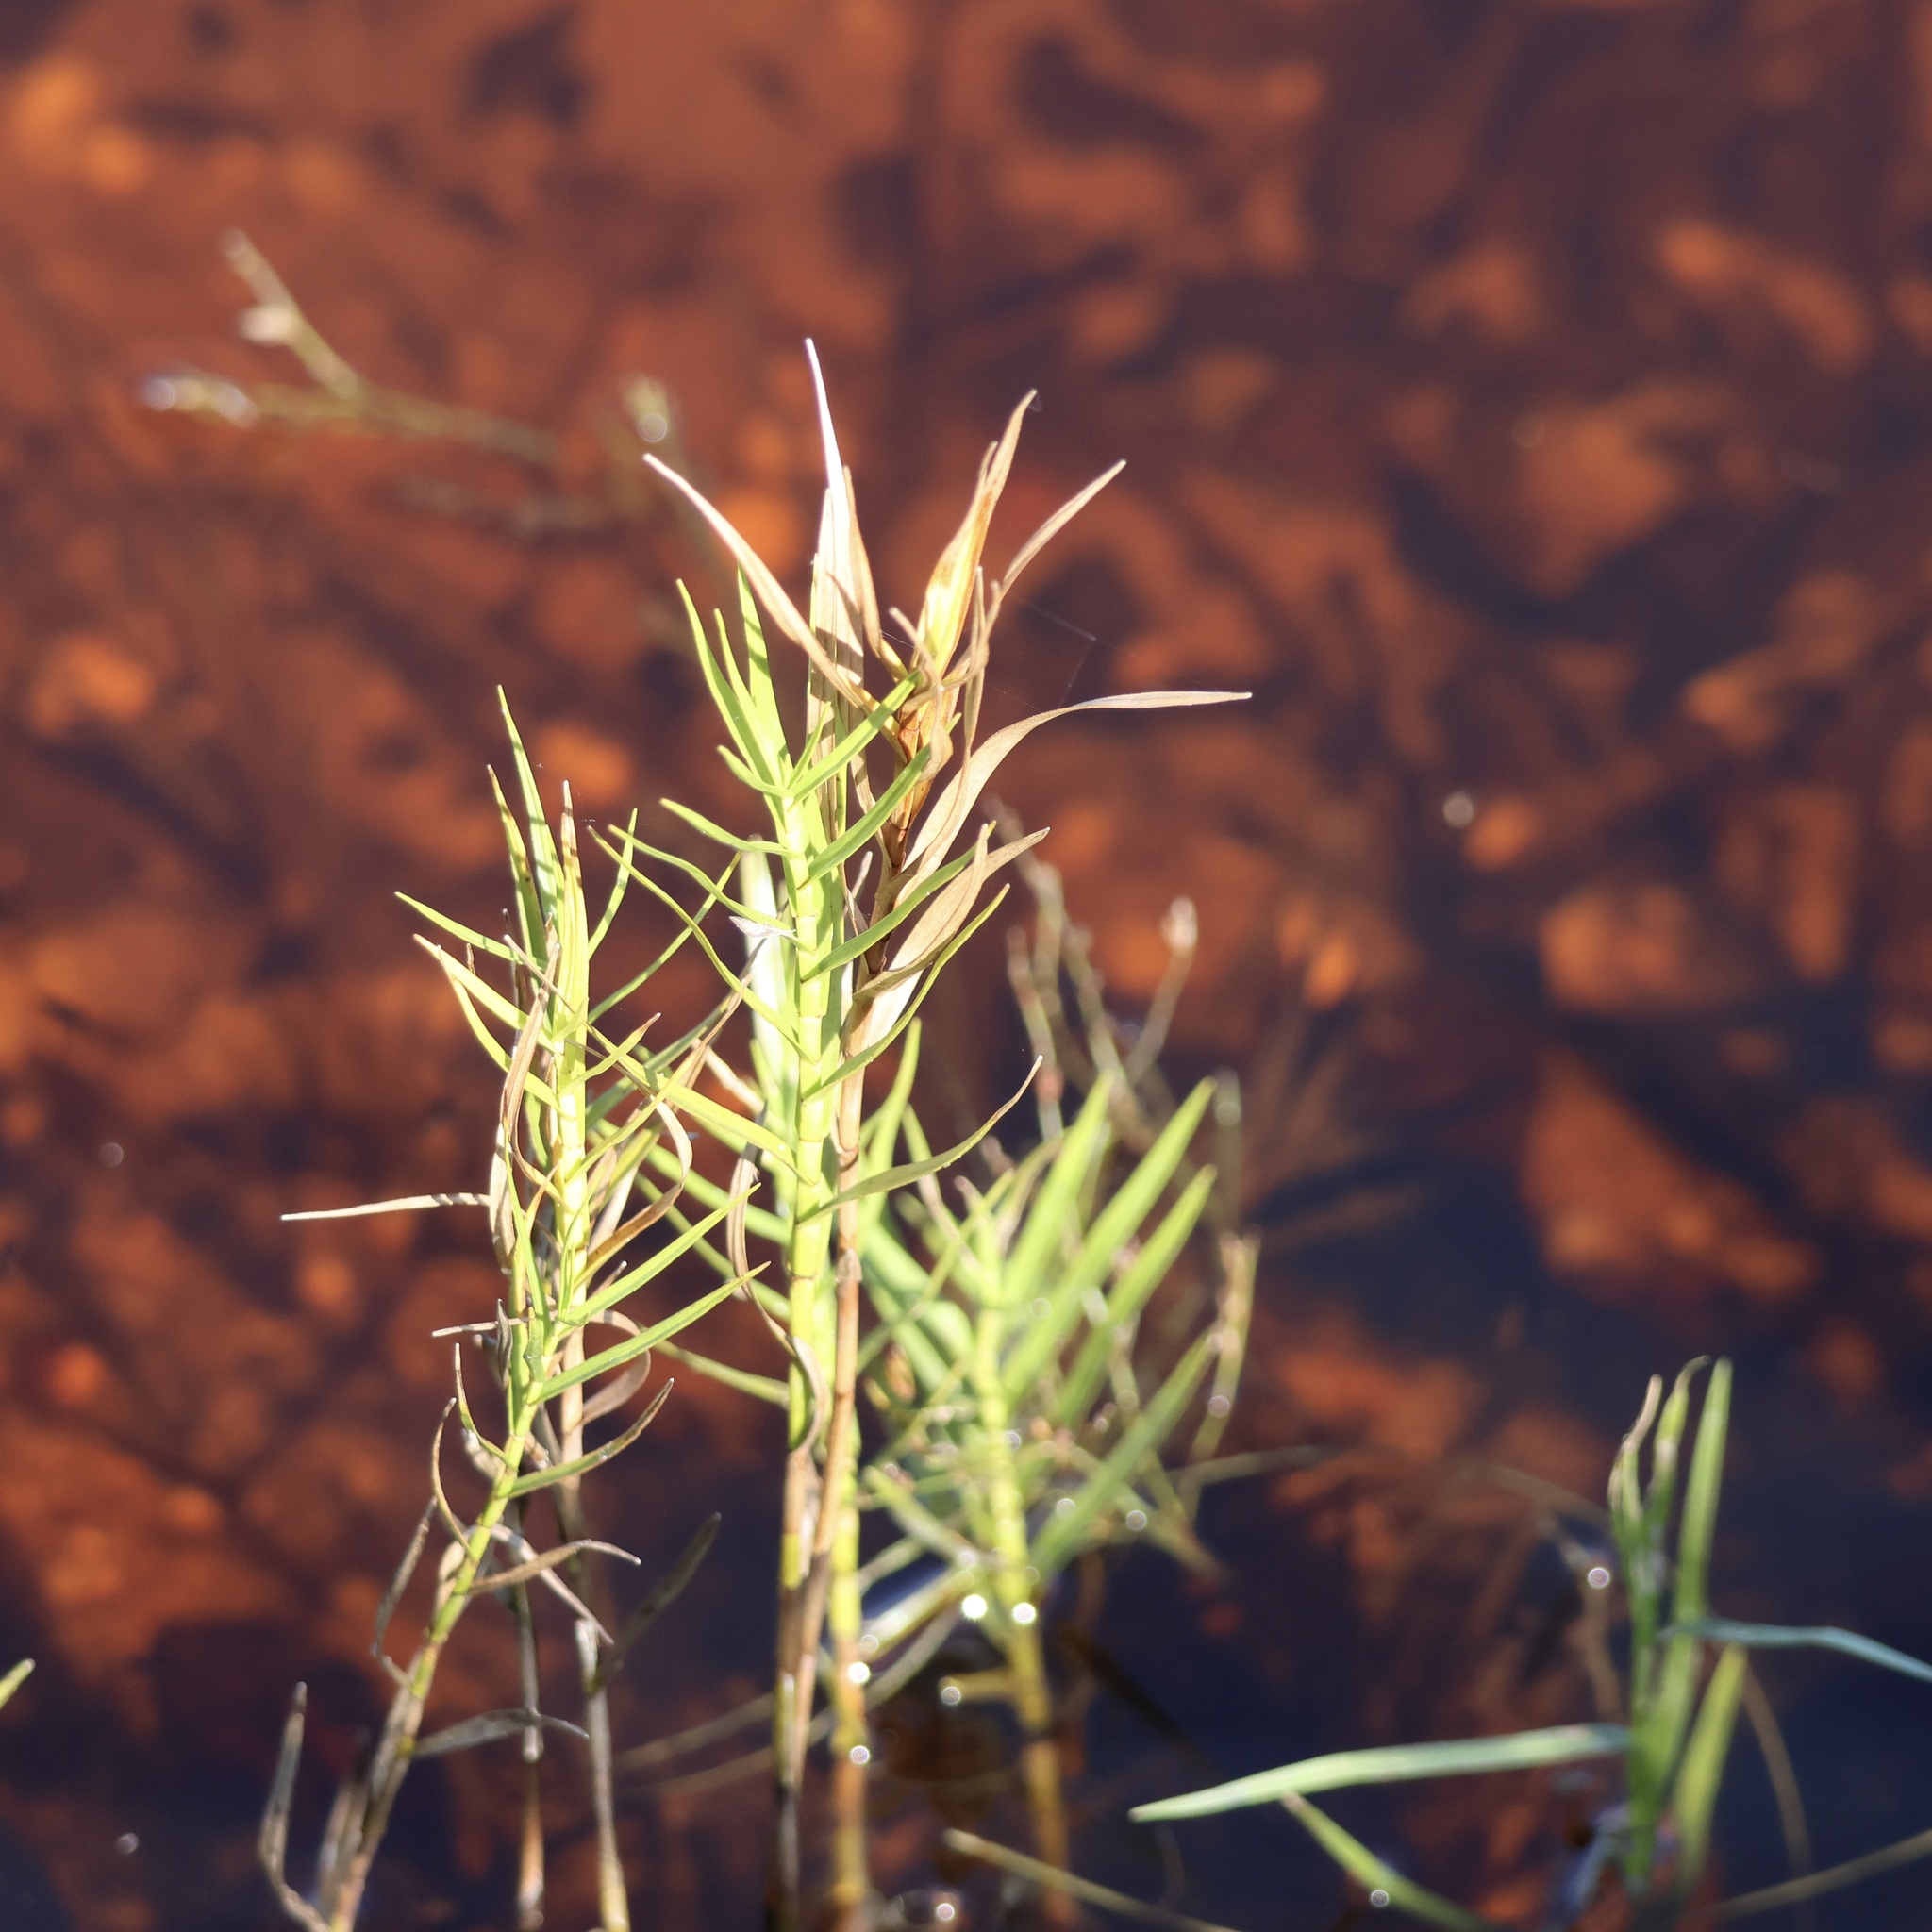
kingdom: Plantae
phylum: Tracheophyta
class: Liliopsida
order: Poales
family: Cyperaceae
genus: Dulichium
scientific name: Dulichium arundinaceum
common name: Three-way sedge
